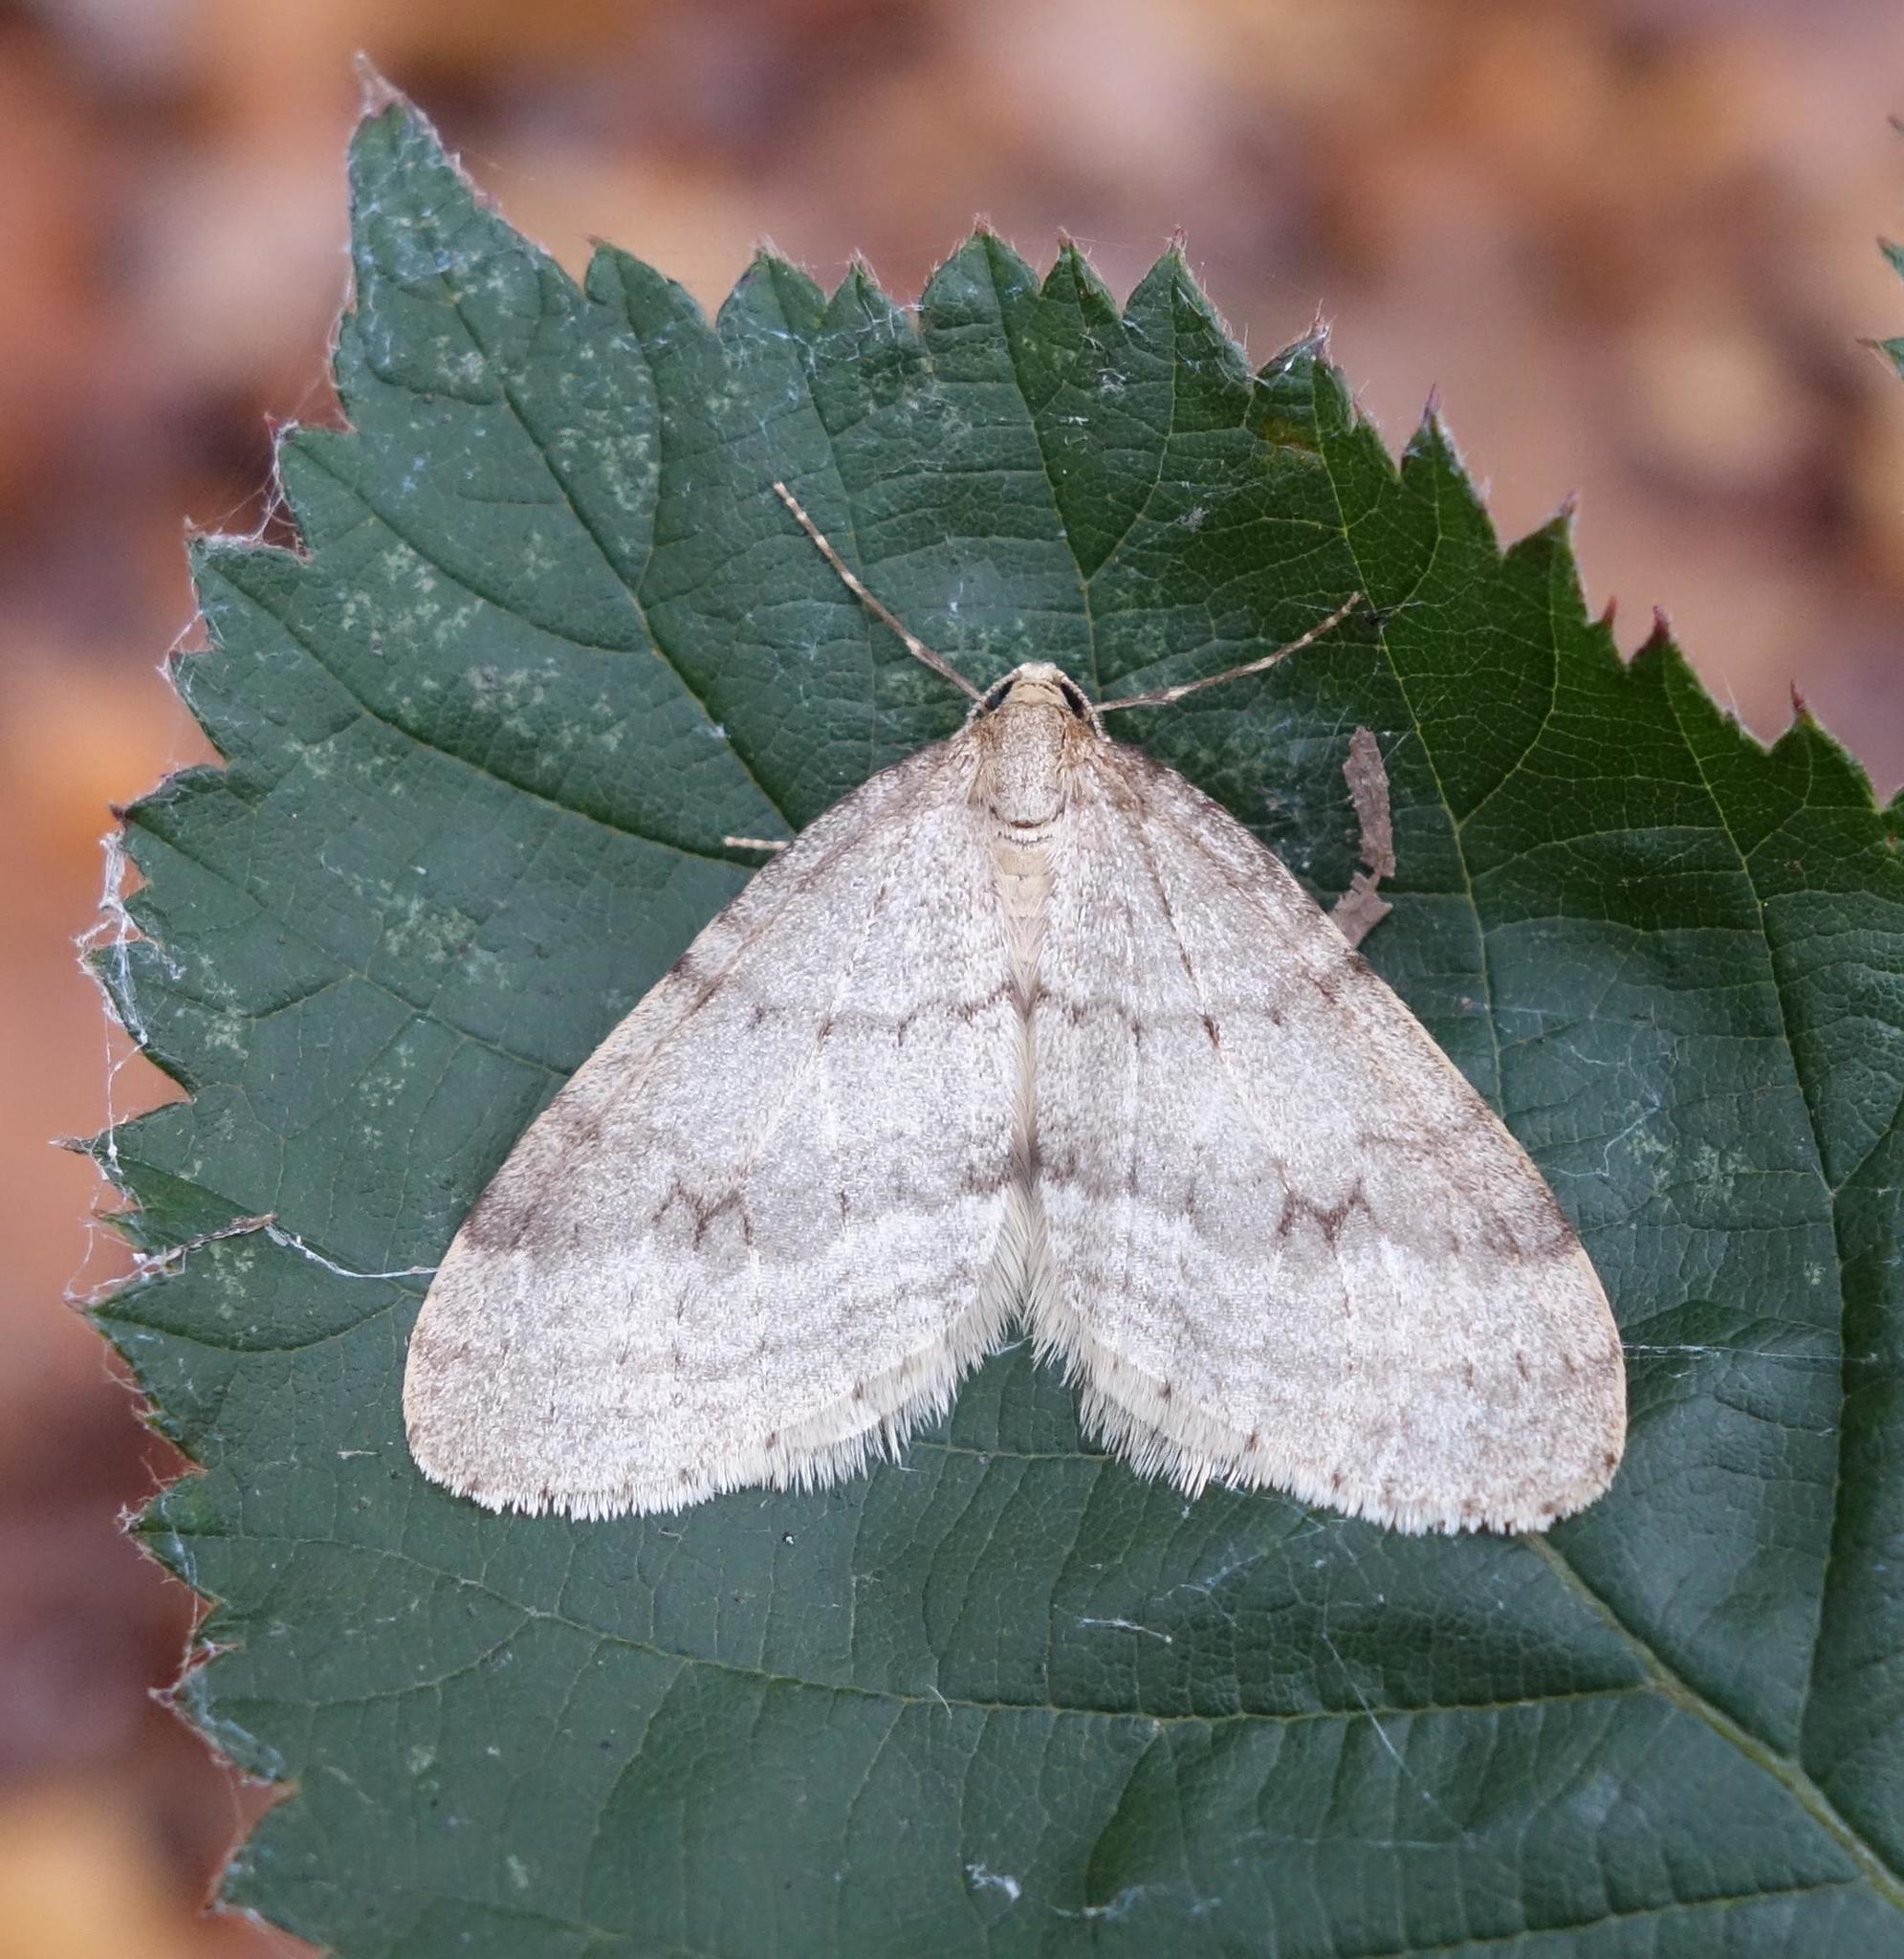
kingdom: Animalia
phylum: Arthropoda
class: Insecta
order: Lepidoptera
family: Geometridae
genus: Operophtera
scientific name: Operophtera fagata
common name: Northern winter moth
